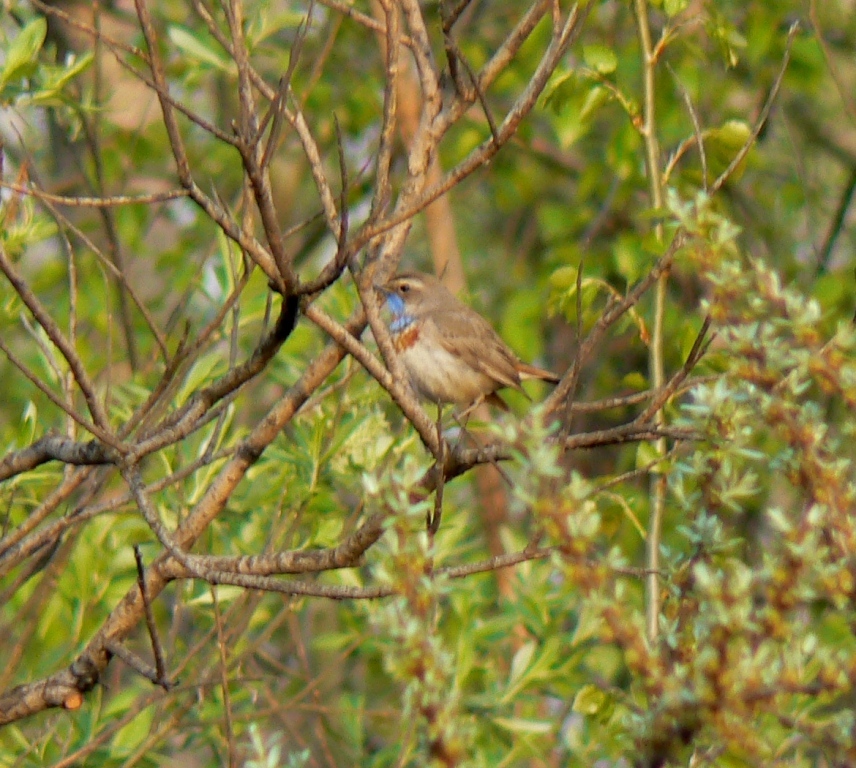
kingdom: Animalia
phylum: Chordata
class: Aves
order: Passeriformes
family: Muscicapidae
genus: Luscinia
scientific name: Luscinia svecica
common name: Bluethroat
